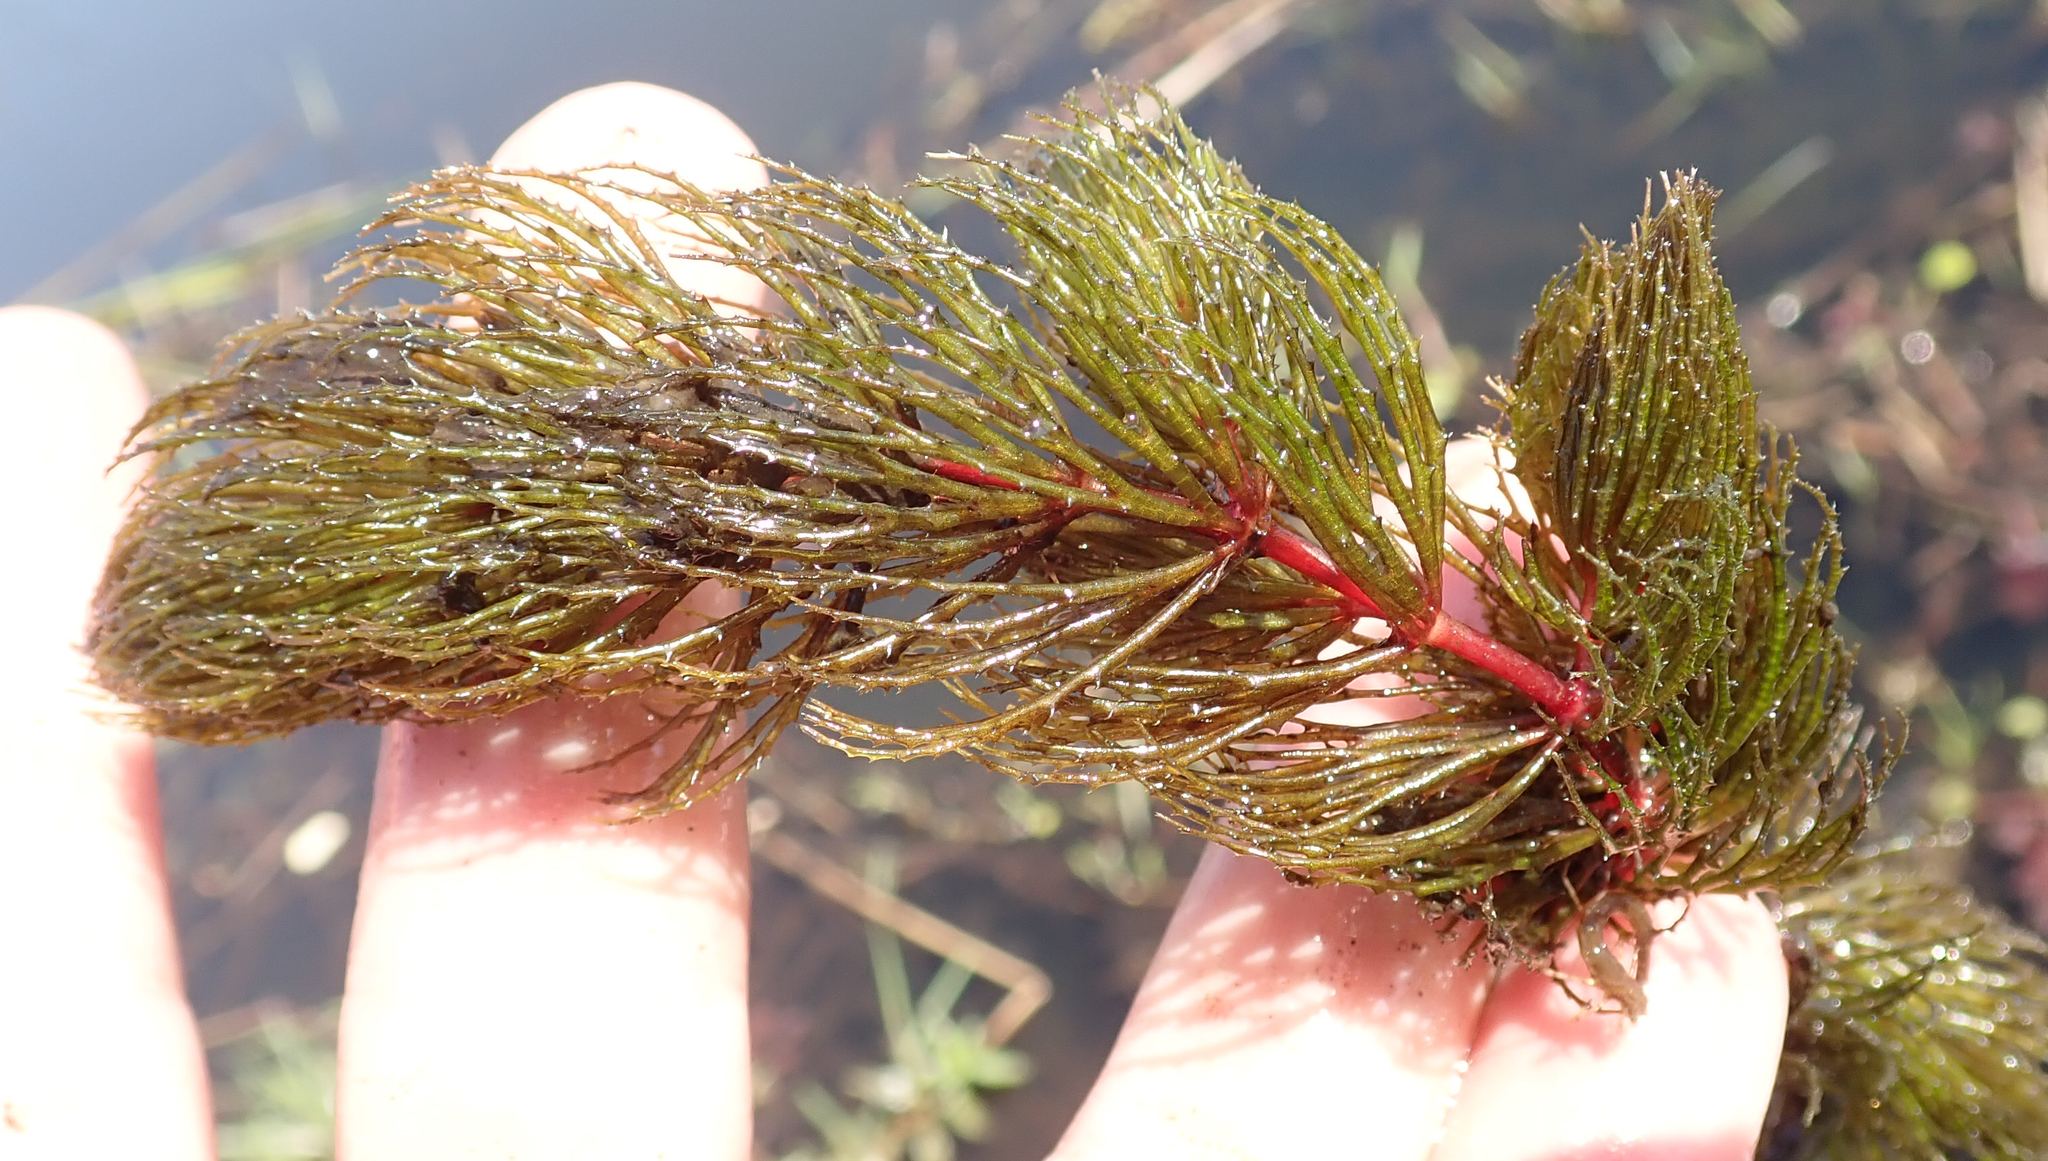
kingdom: Plantae
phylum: Tracheophyta
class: Magnoliopsida
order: Ceratophyllales
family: Ceratophyllaceae
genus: Ceratophyllum
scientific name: Ceratophyllum demersum
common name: Rigid hornwort
